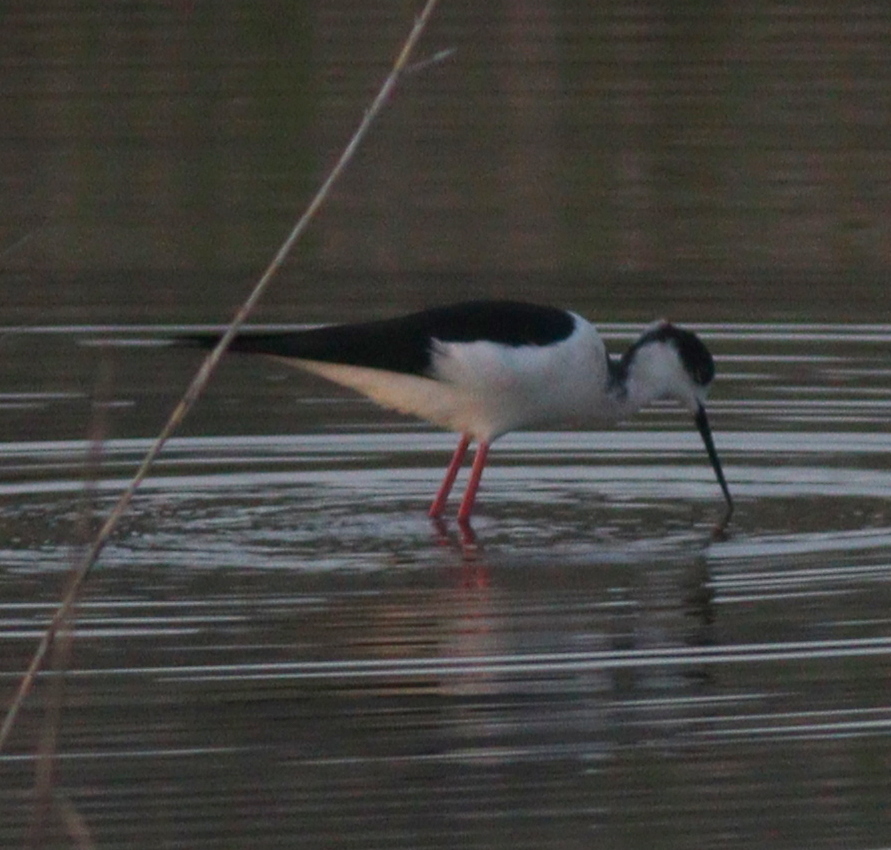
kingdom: Animalia
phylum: Chordata
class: Aves
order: Charadriiformes
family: Recurvirostridae
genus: Himantopus
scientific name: Himantopus himantopus
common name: Black-winged stilt
